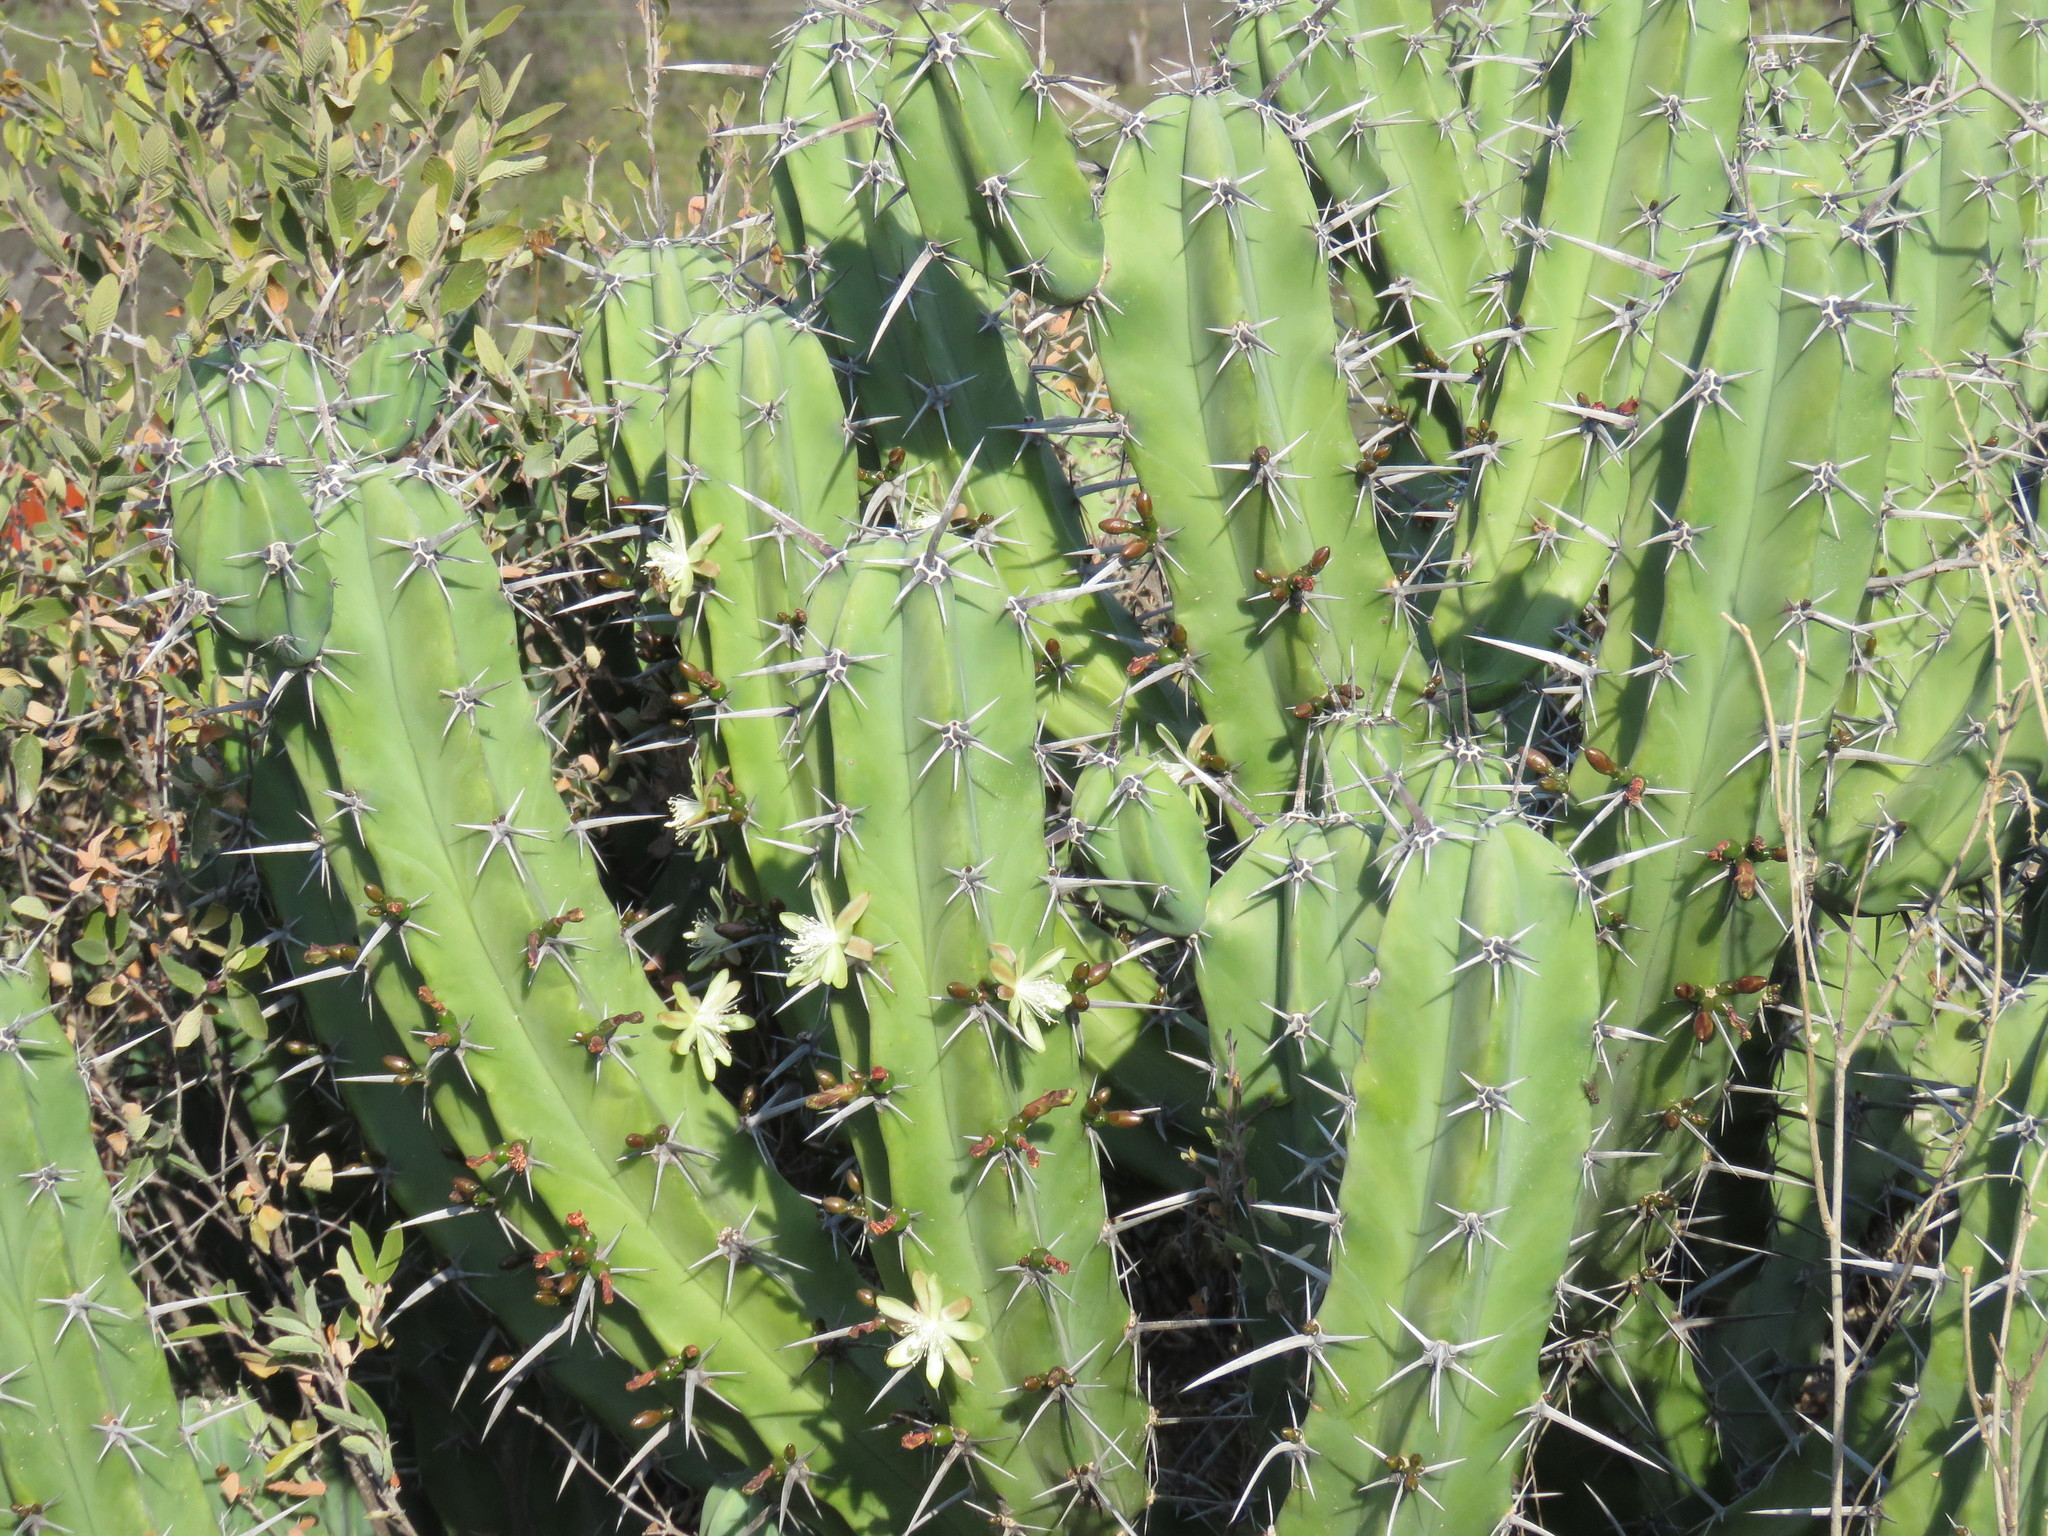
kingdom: Plantae
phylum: Tracheophyta
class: Magnoliopsida
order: Caryophyllales
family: Cactaceae
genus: Myrtillocactus
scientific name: Myrtillocactus geometrizans
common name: Bilberry cactus
